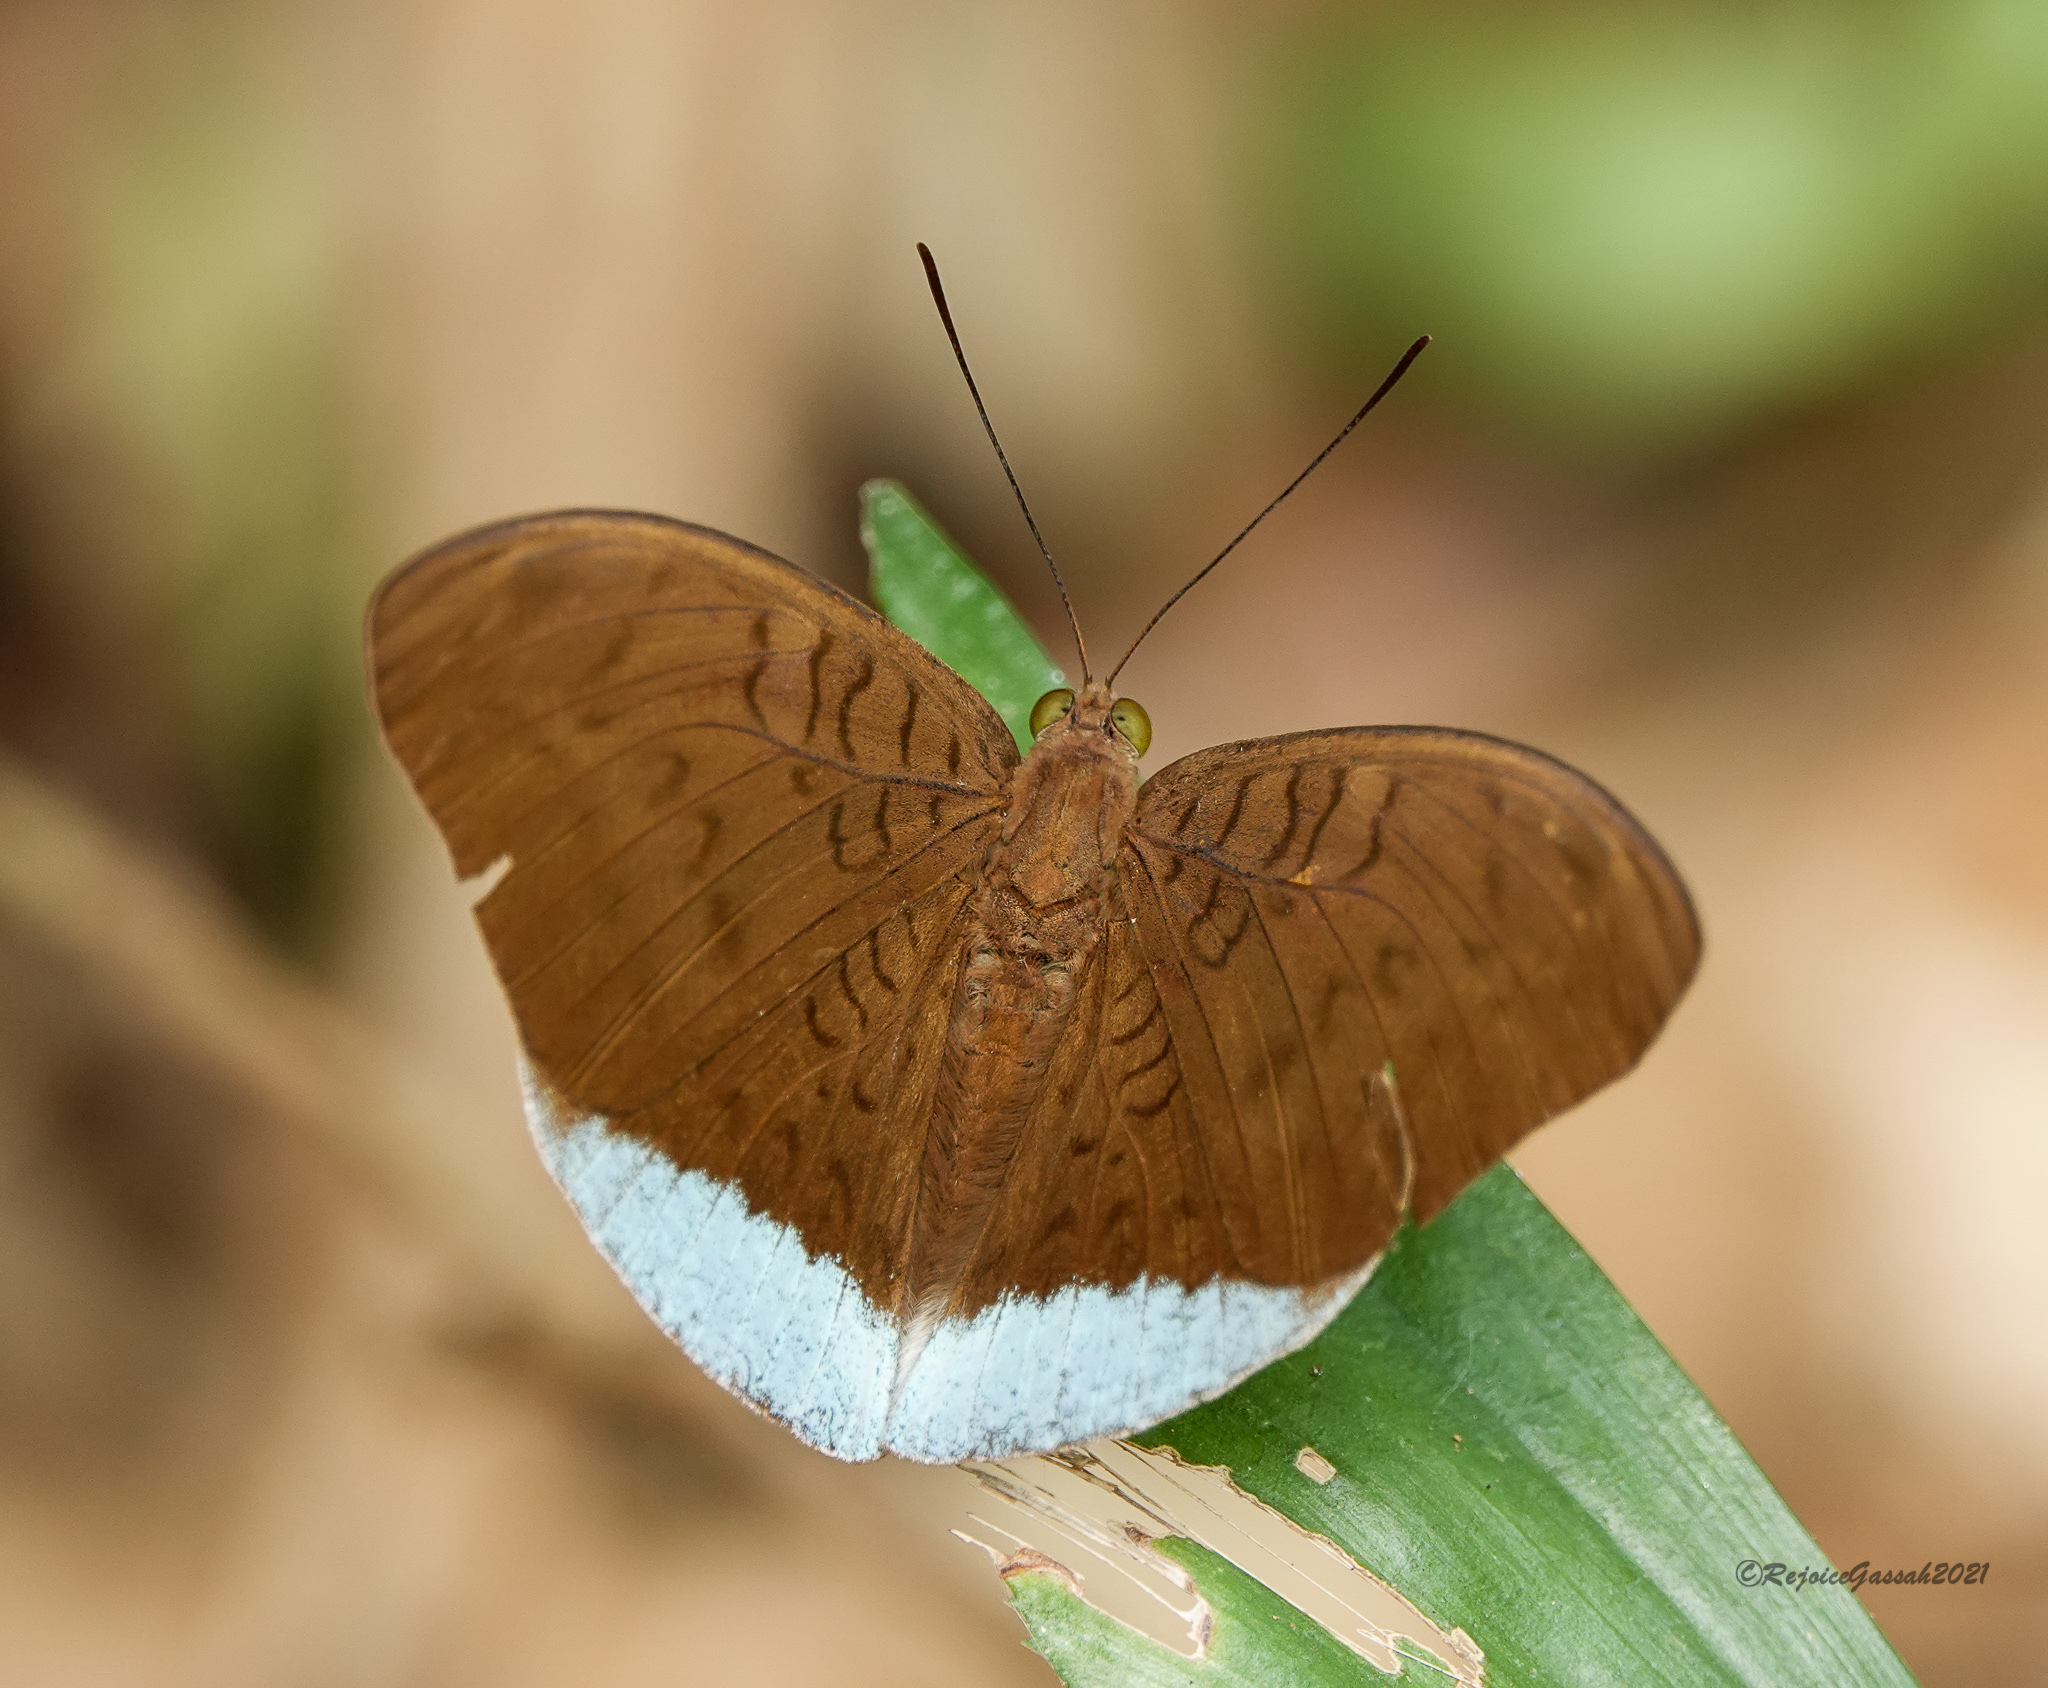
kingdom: Animalia
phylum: Arthropoda
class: Insecta
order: Lepidoptera
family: Nymphalidae
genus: Tanaecia
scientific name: Tanaecia julii
